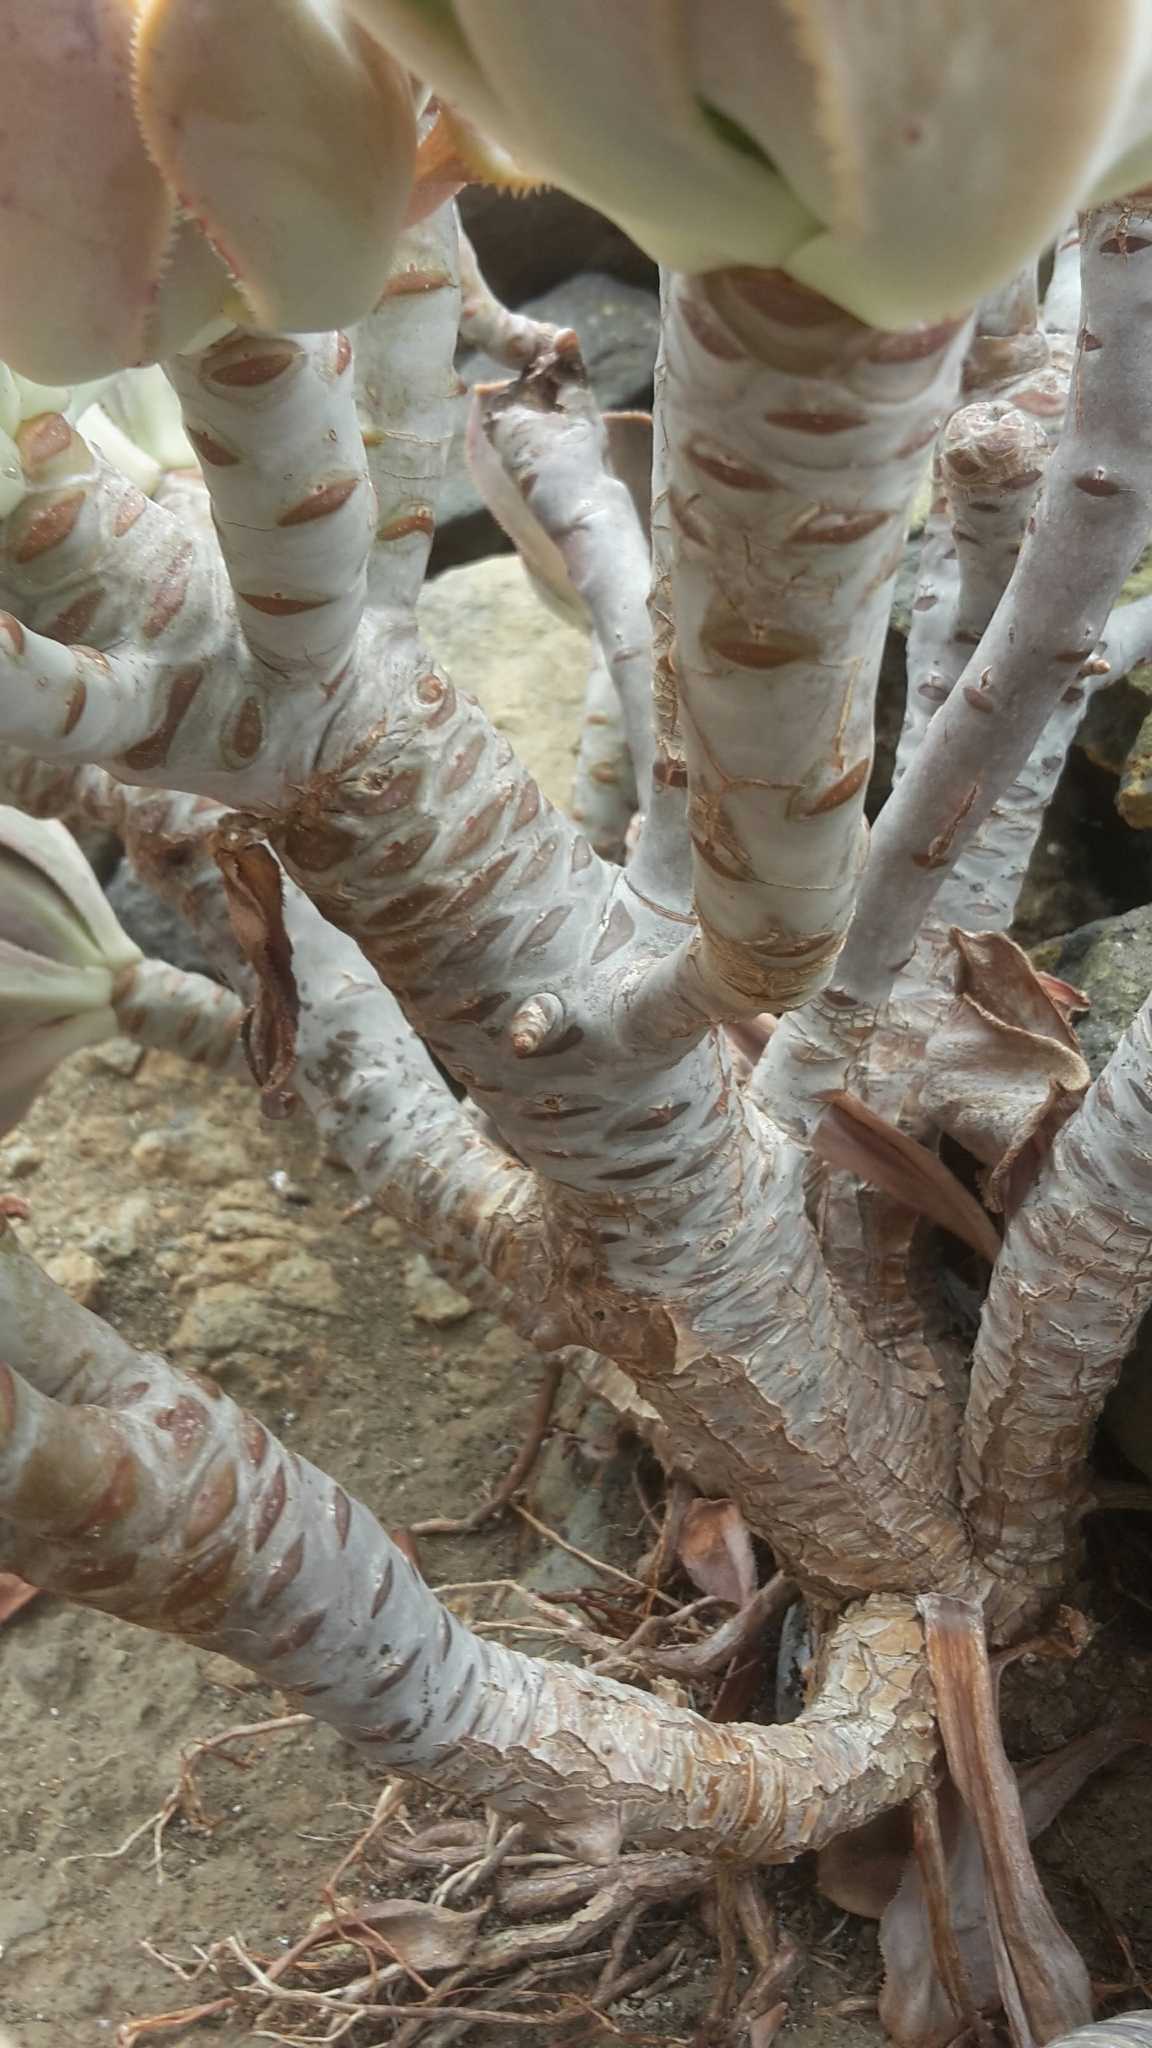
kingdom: Plantae
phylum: Tracheophyta
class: Magnoliopsida
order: Saxifragales
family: Crassulaceae
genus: Aeonium
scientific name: Aeonium davidbramwellii
